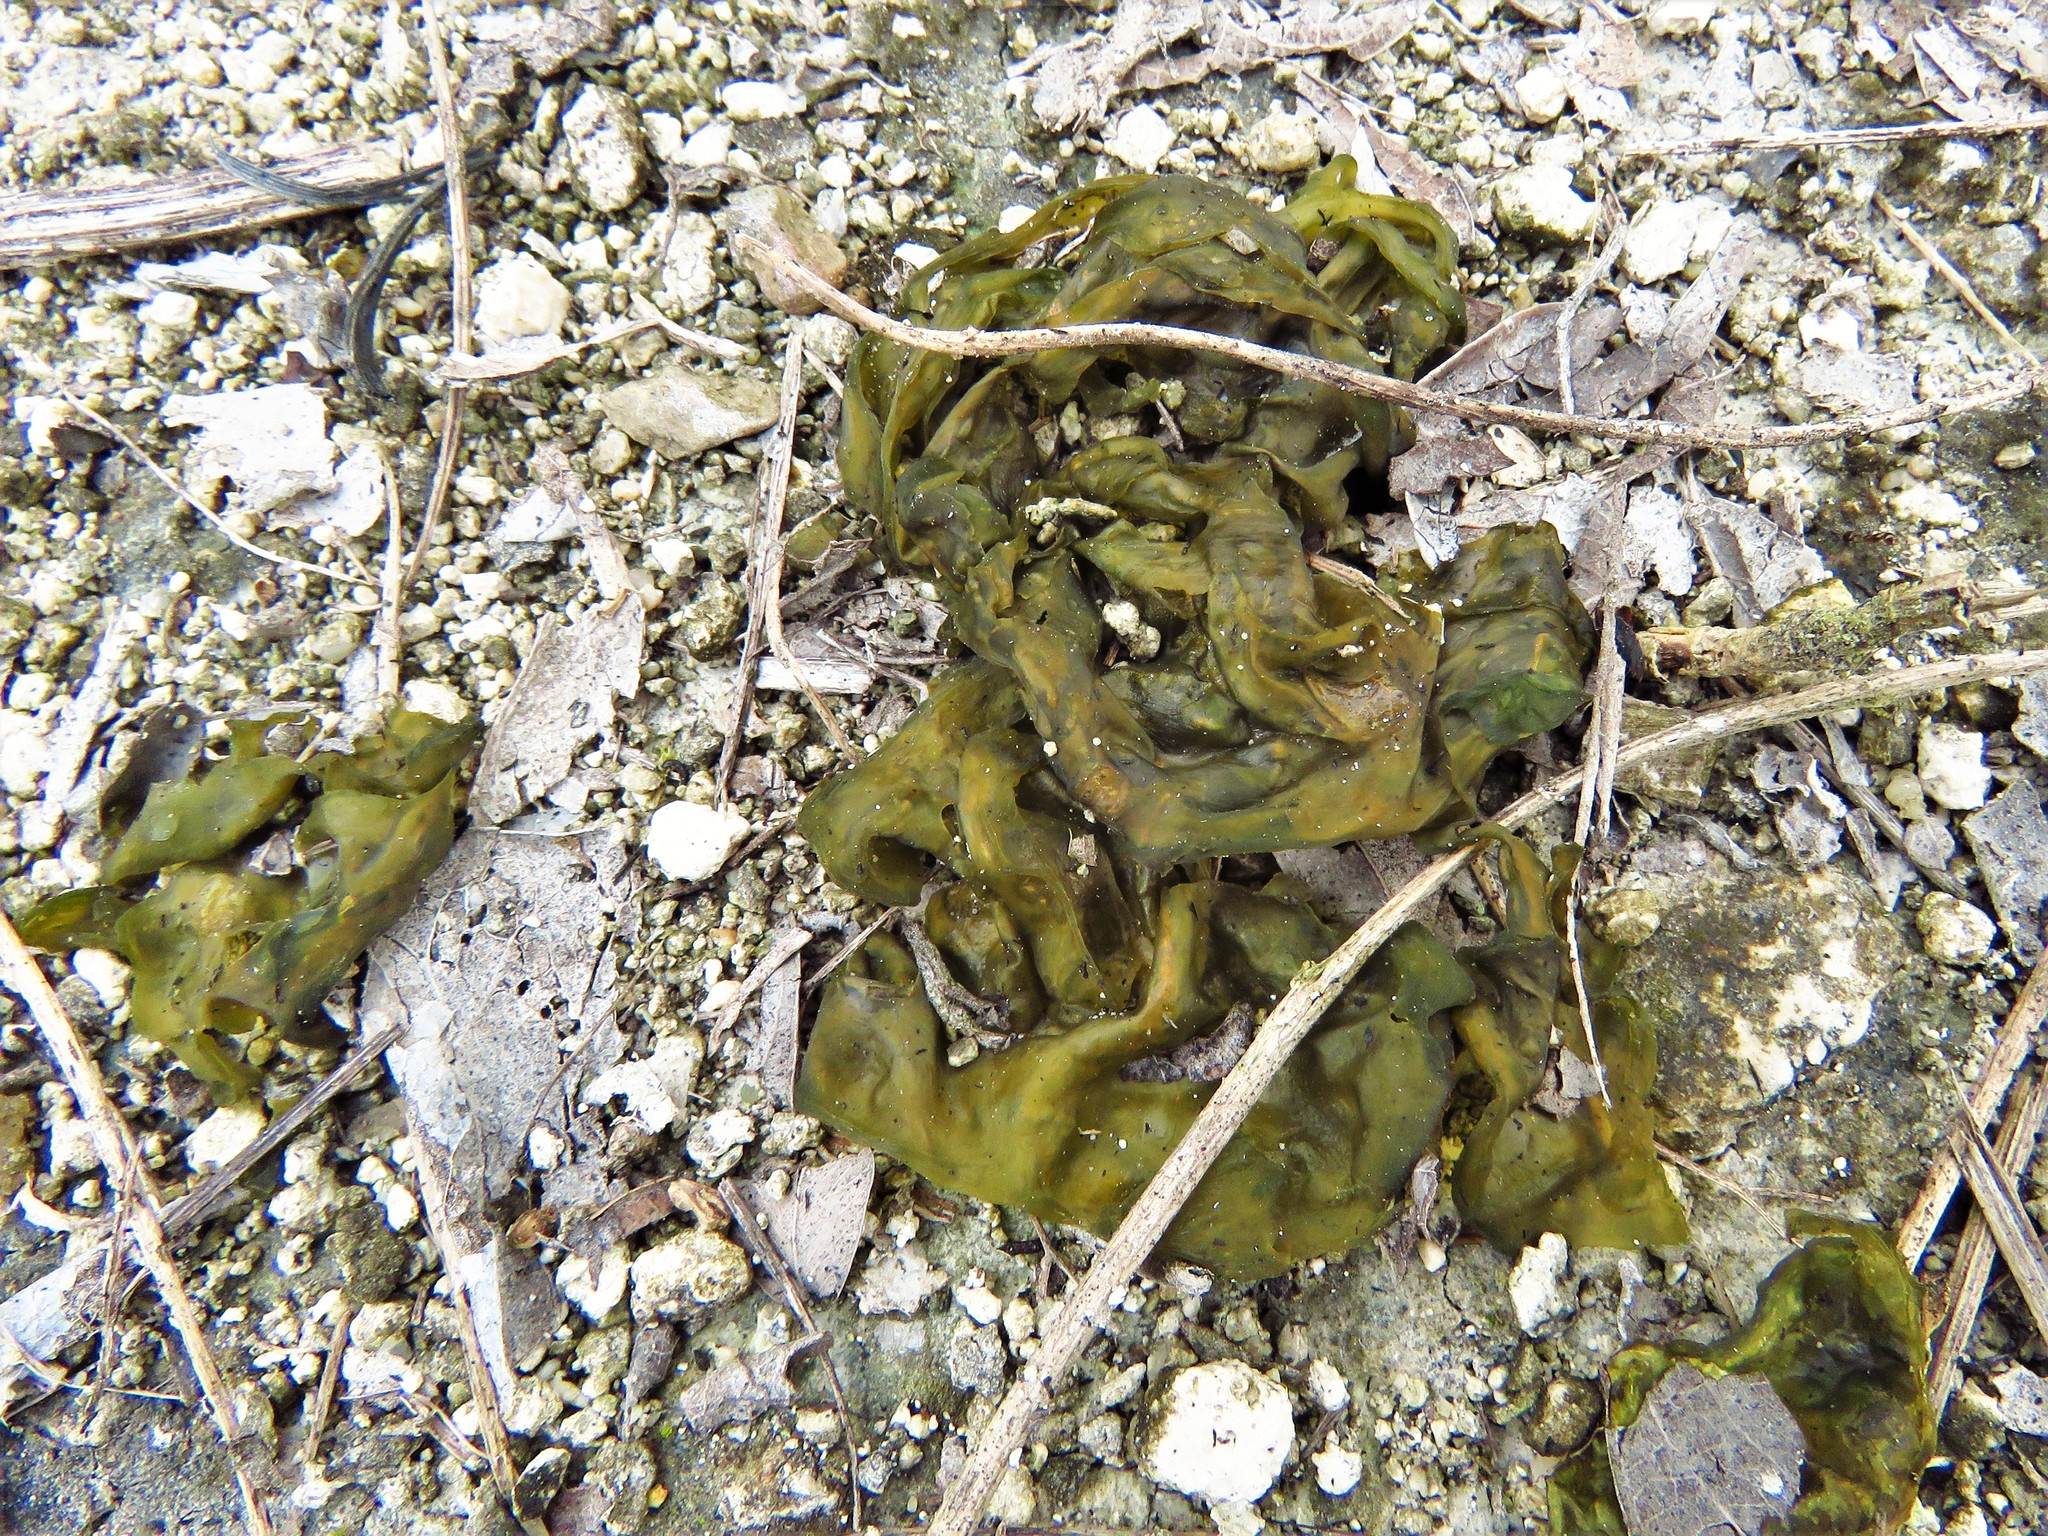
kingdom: Bacteria
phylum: Cyanobacteria
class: Cyanobacteriia
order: Cyanobacteriales
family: Nostocaceae
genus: Nostoc
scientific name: Nostoc commune
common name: Star jelly
